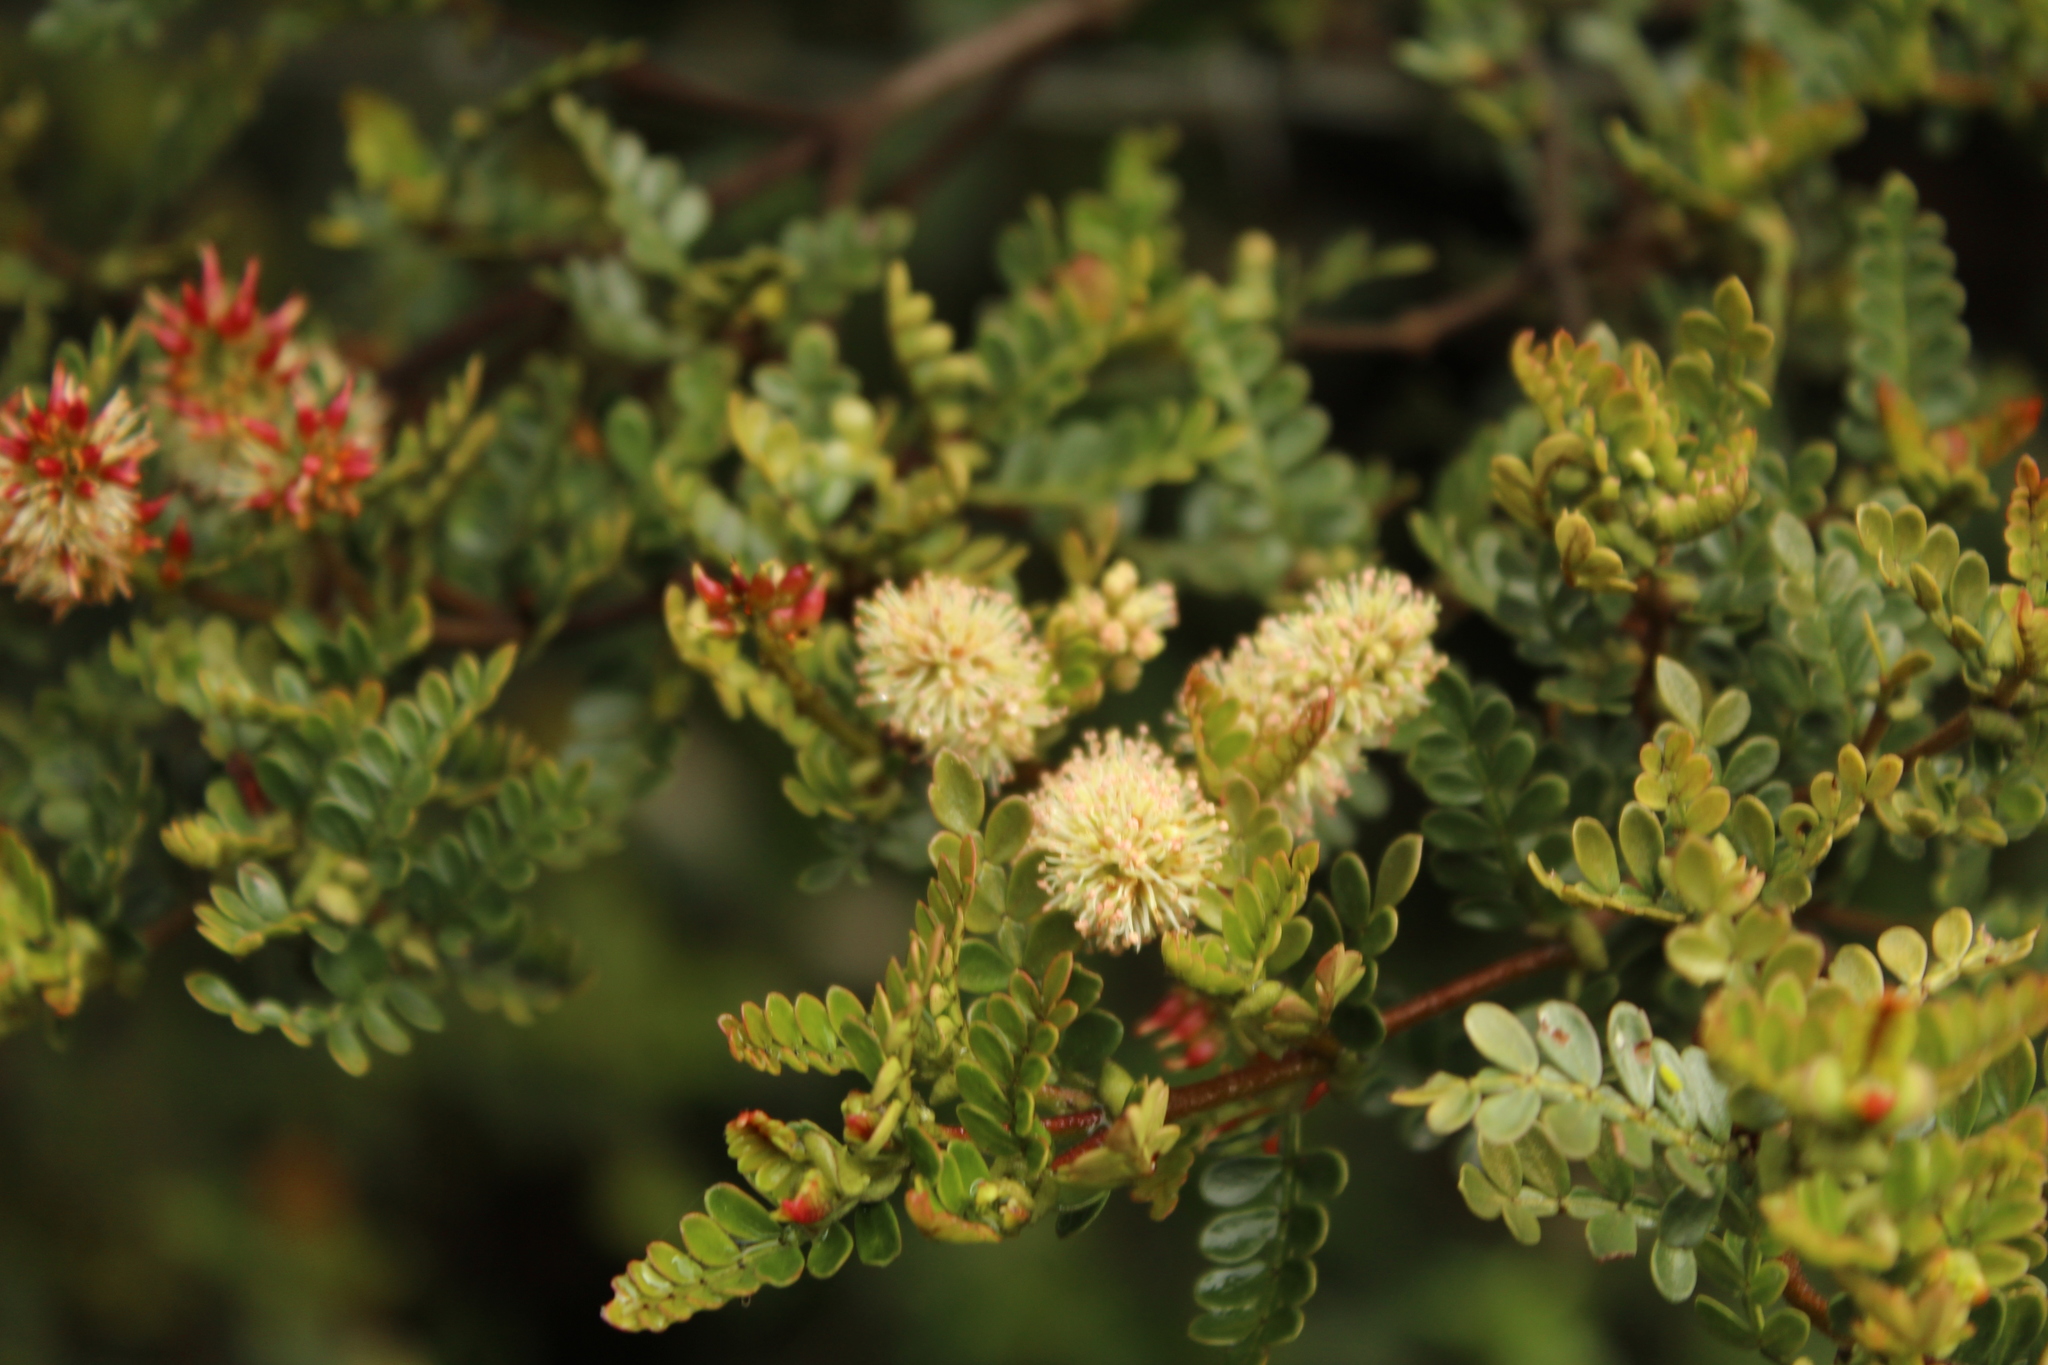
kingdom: Plantae
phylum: Tracheophyta
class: Magnoliopsida
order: Oxalidales
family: Cunoniaceae
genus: Weinmannia
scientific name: Weinmannia fagaroides
